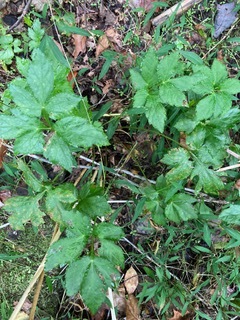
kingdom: Plantae
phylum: Tracheophyta
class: Magnoliopsida
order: Apiales
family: Apiaceae
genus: Cryptotaenia
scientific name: Cryptotaenia canadensis
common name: Honewort
